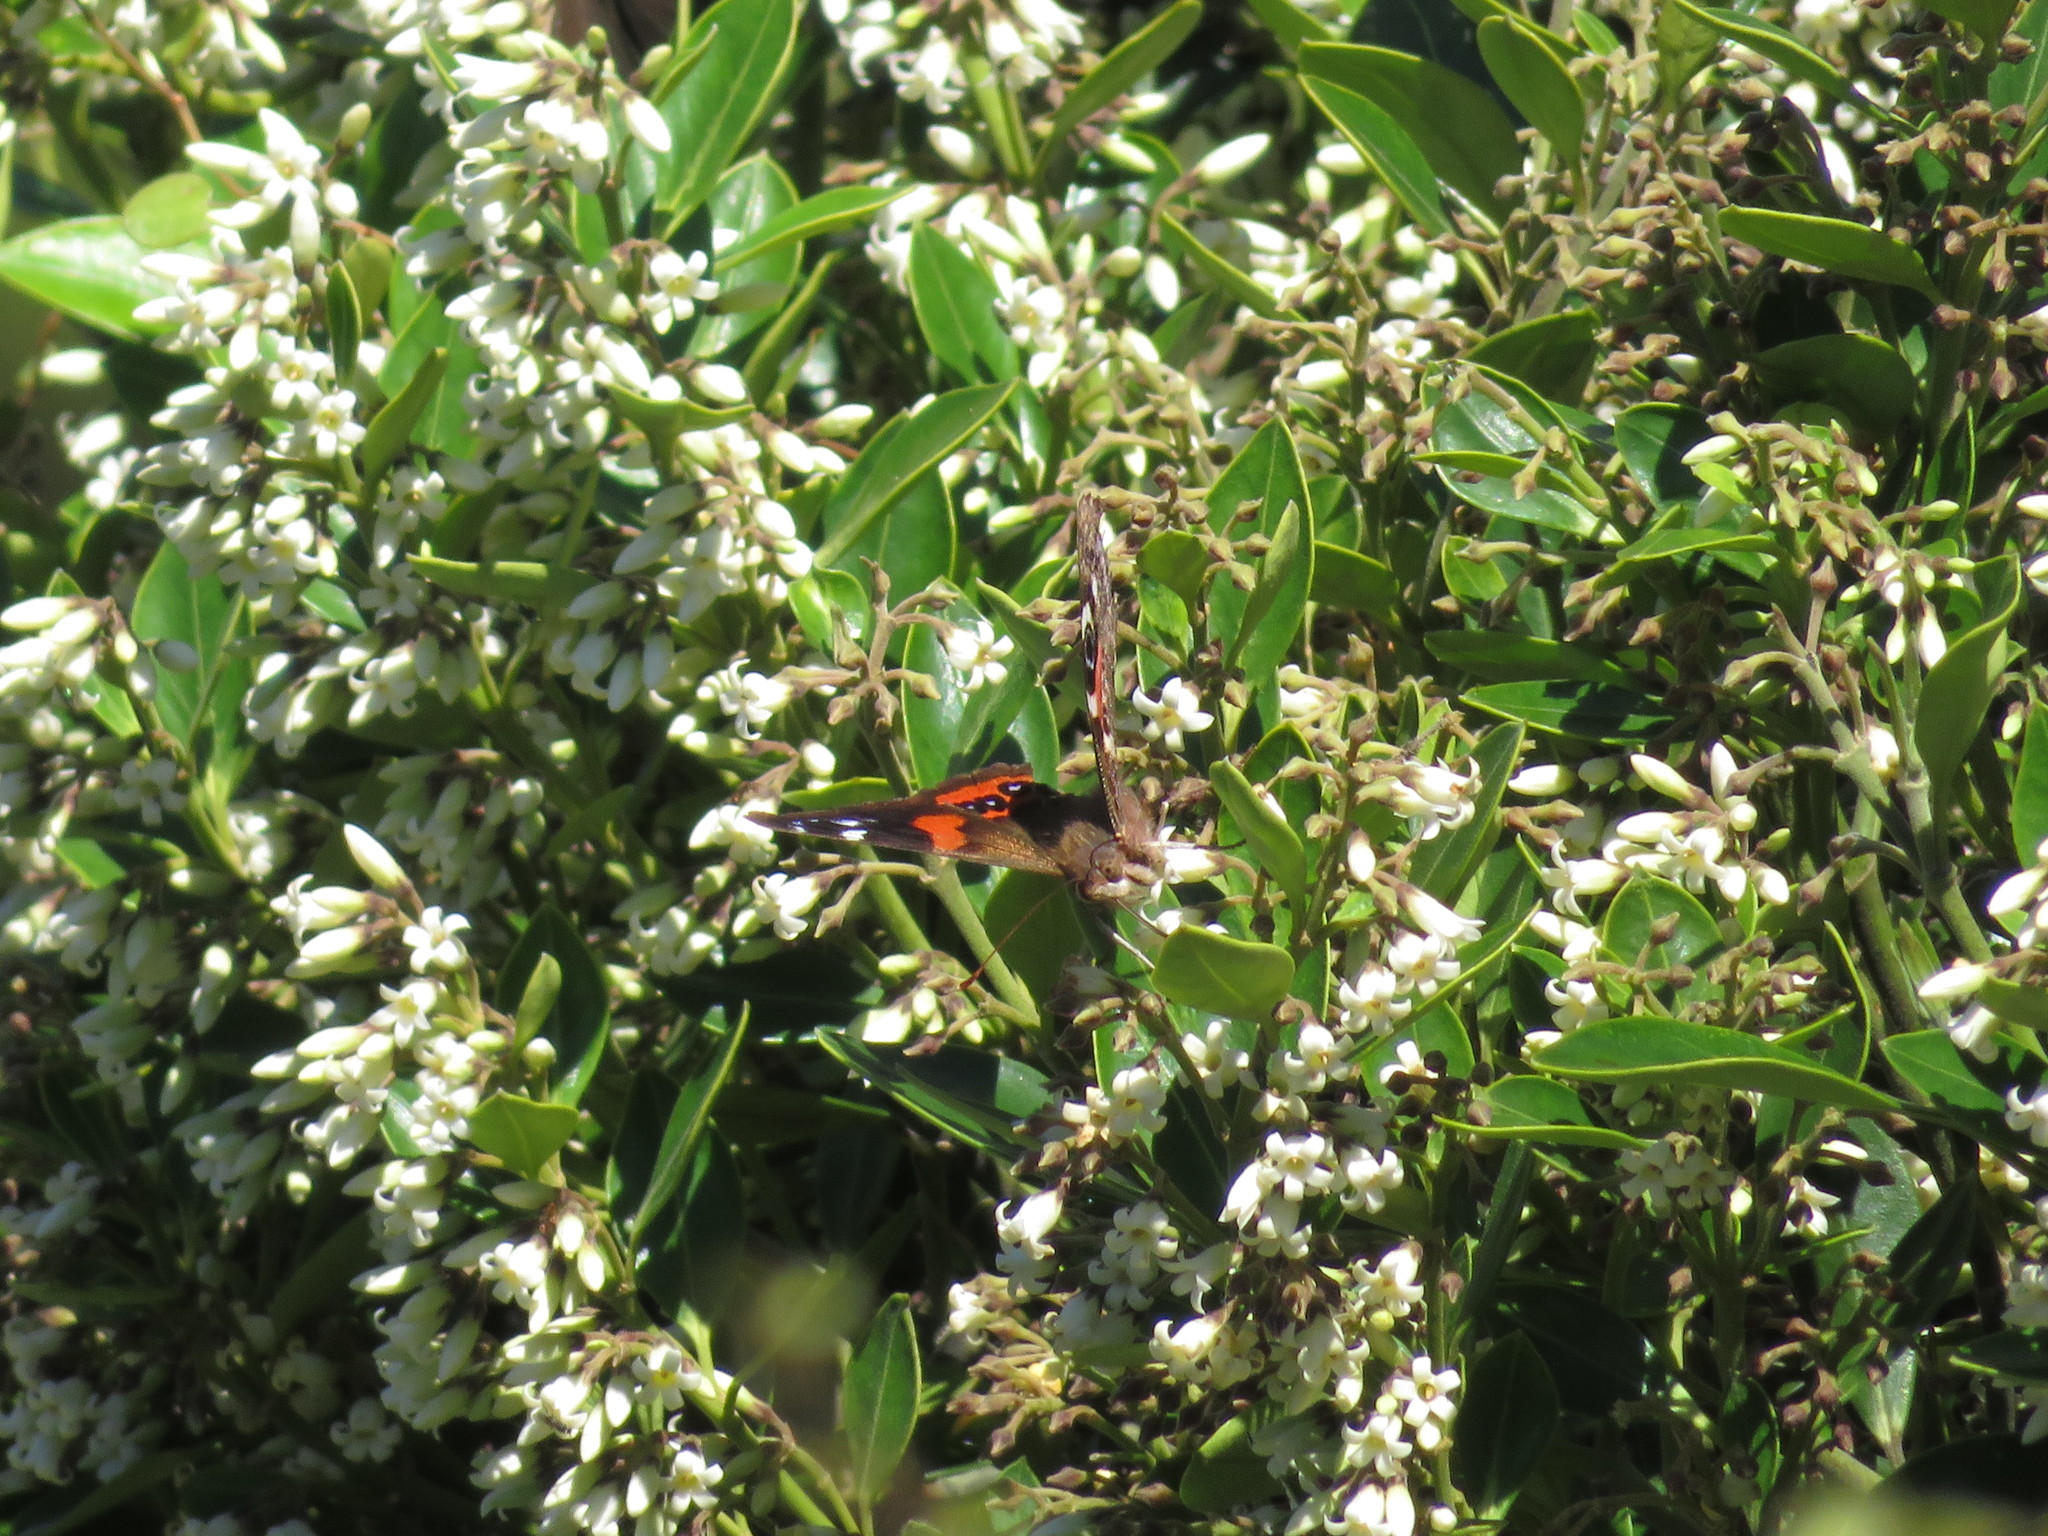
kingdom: Animalia
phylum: Arthropoda
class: Insecta
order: Lepidoptera
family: Nymphalidae
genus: Vanessa
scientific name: Vanessa gonerilla
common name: New zealand red admiral
